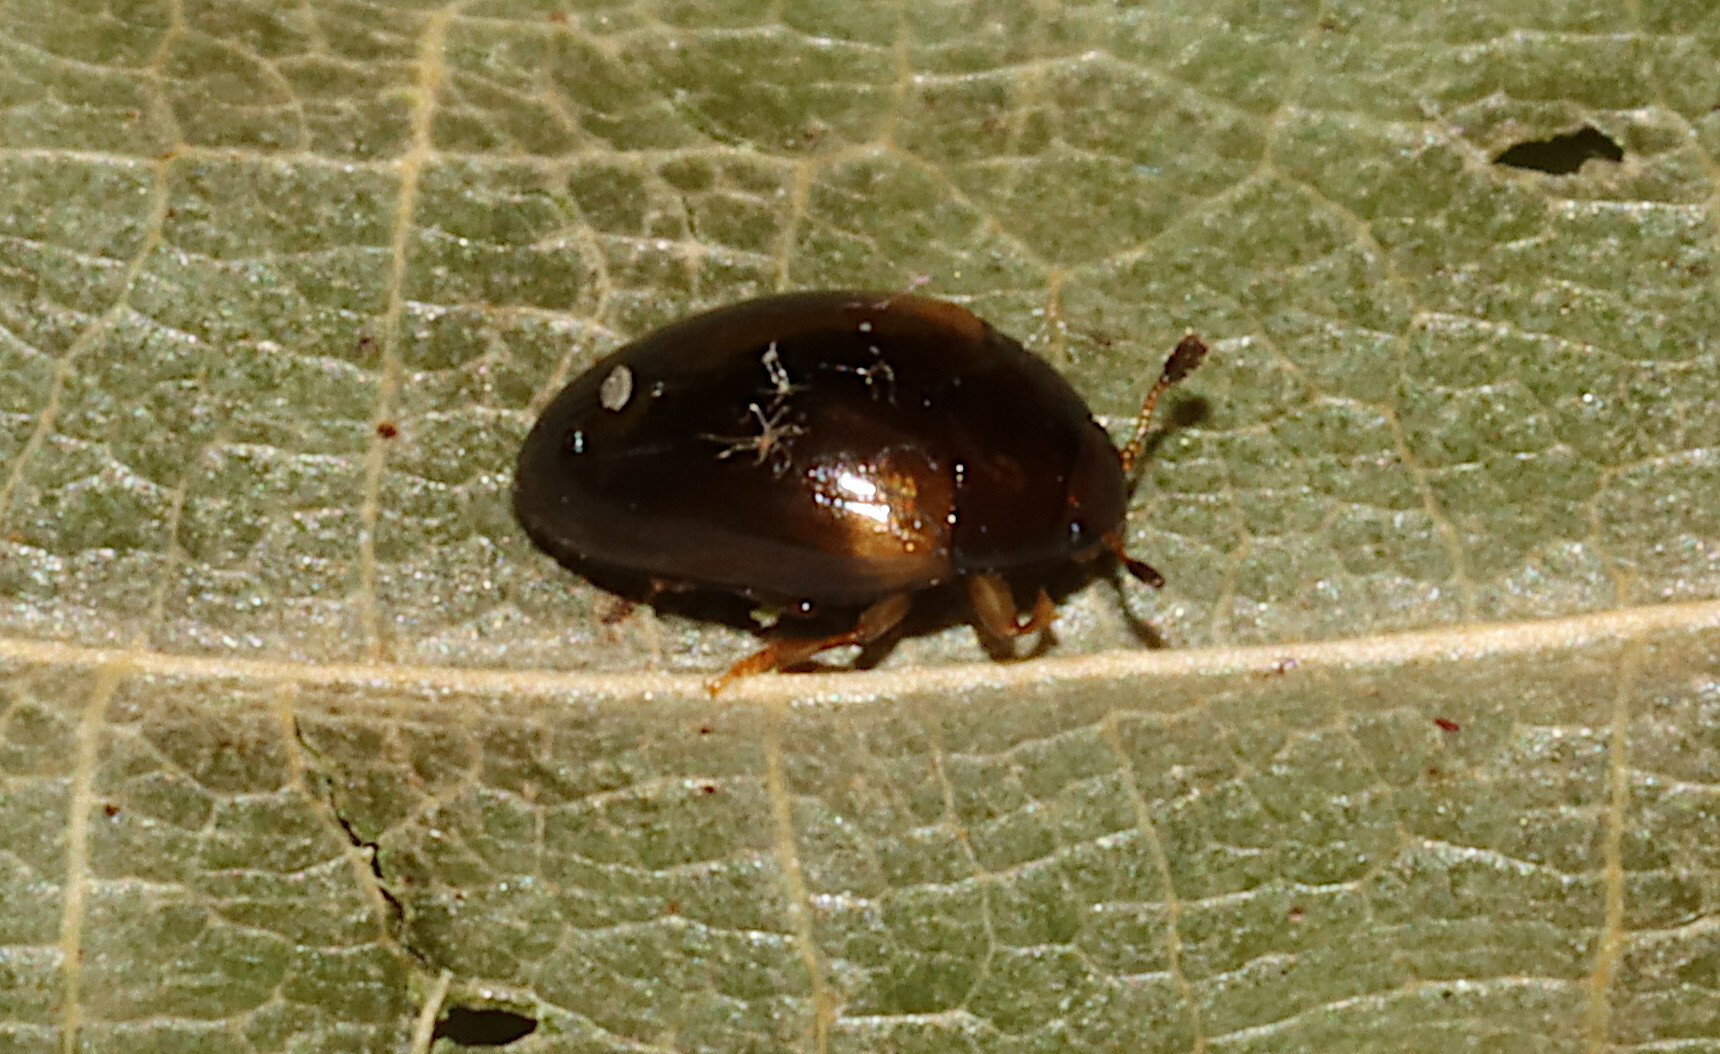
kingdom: Animalia
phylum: Arthropoda
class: Insecta
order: Coleoptera
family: Erotylidae
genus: Tritoma
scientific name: Tritoma humeralis
